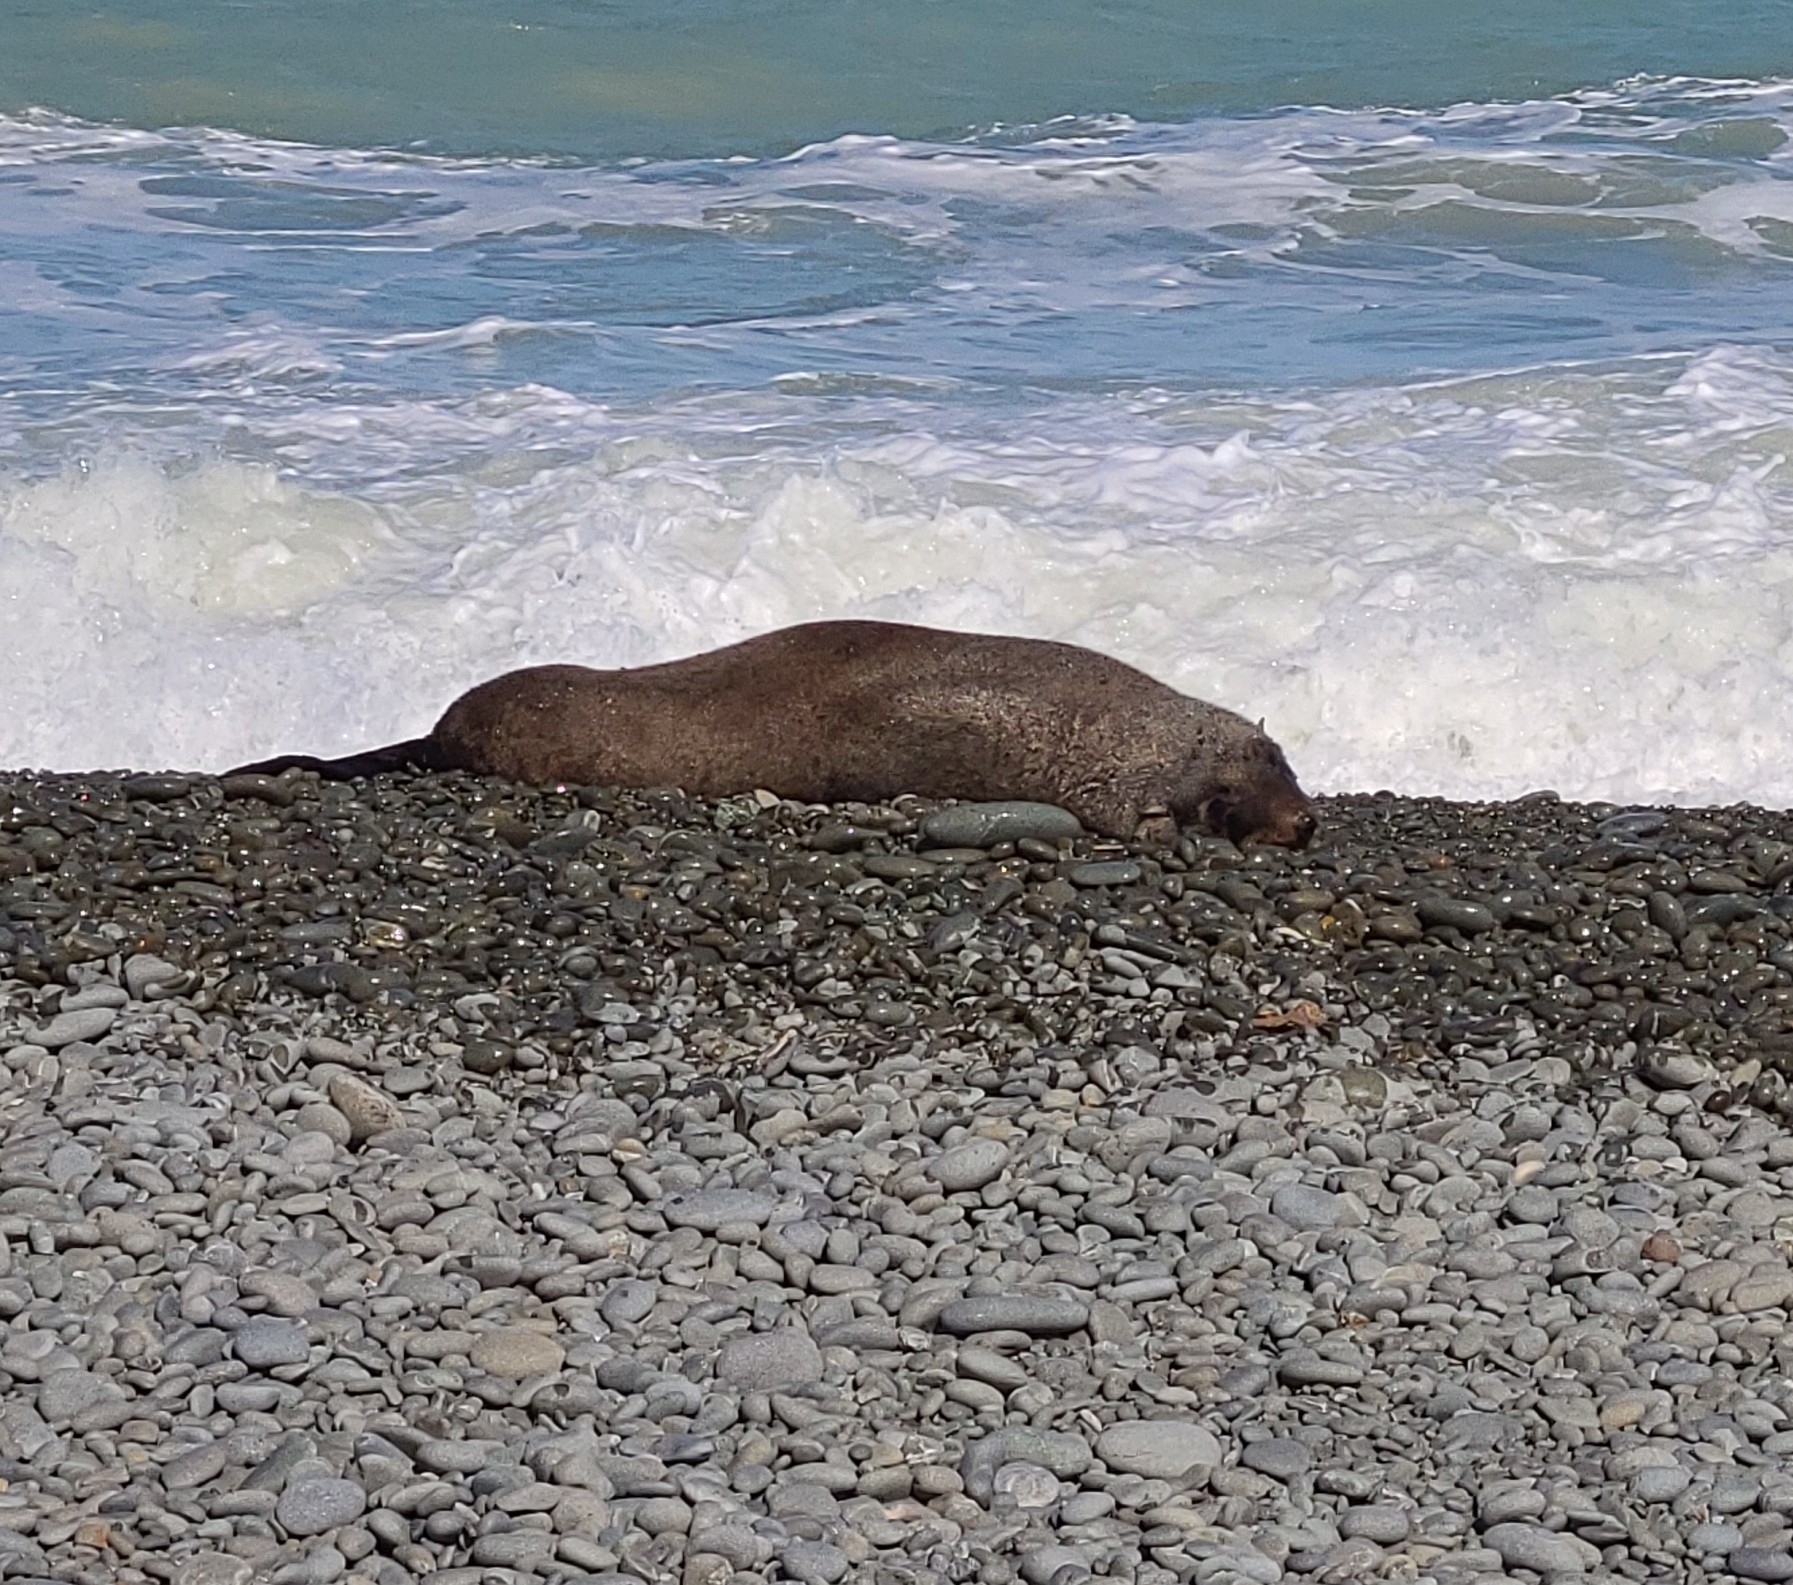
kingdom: Animalia
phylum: Chordata
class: Mammalia
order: Carnivora
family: Otariidae
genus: Arctocephalus
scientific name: Arctocephalus forsteri
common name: New zealand fur seal
